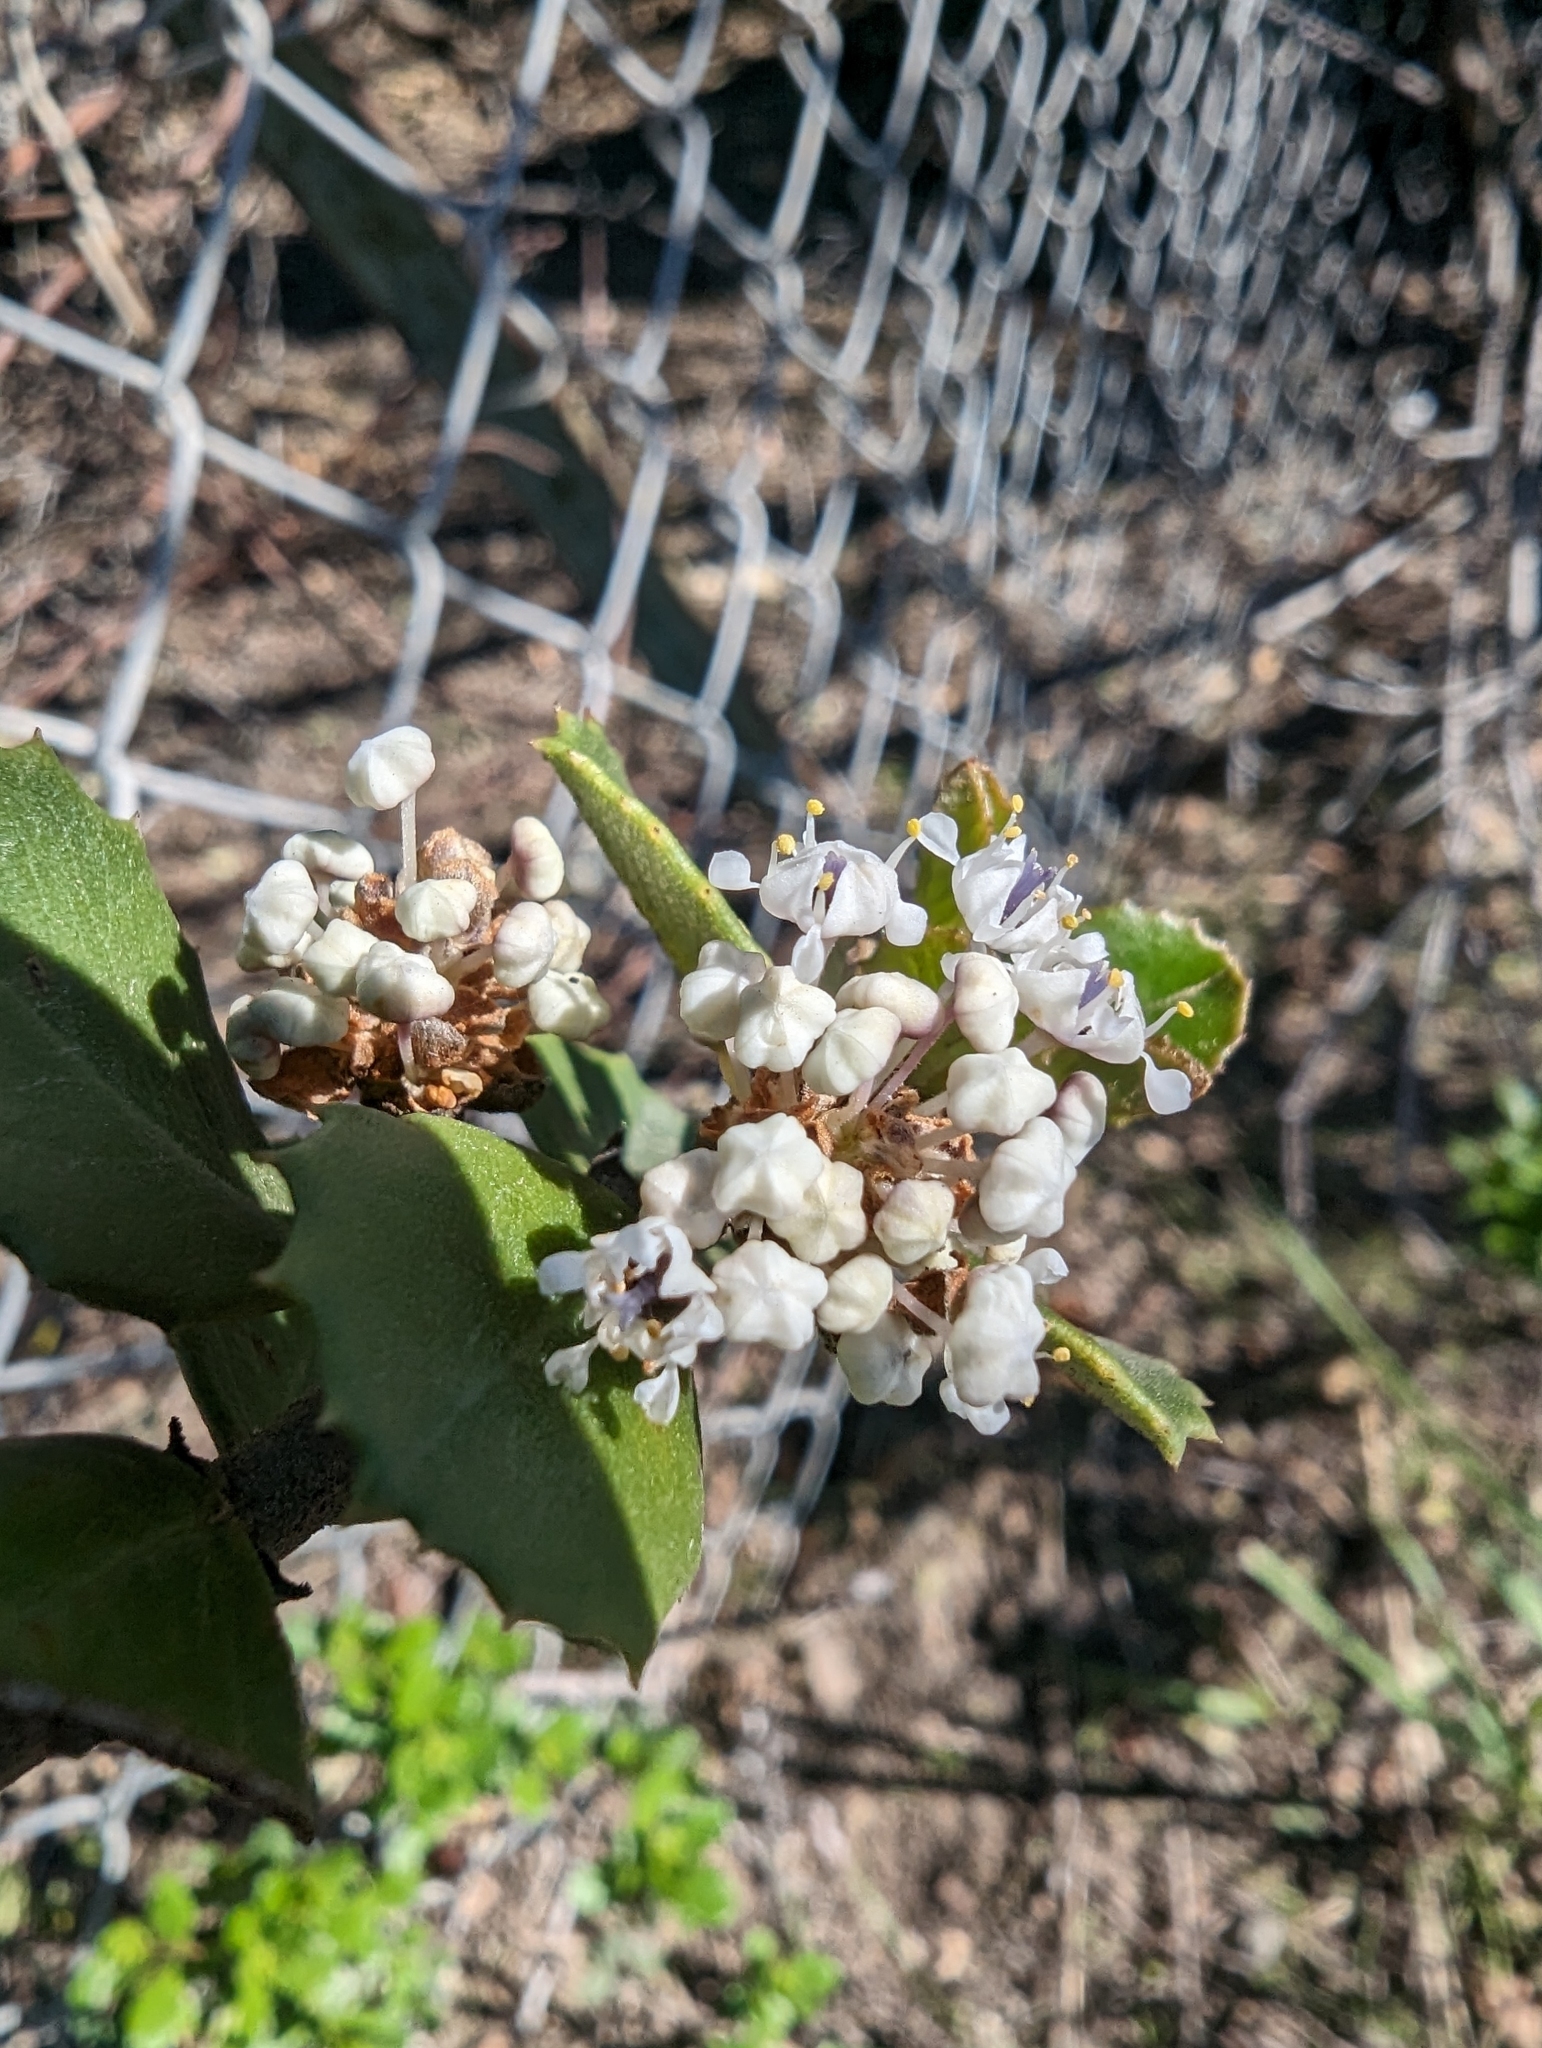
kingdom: Plantae
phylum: Tracheophyta
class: Magnoliopsida
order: Rosales
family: Rhamnaceae
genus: Ceanothus
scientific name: Ceanothus ferrisiae
